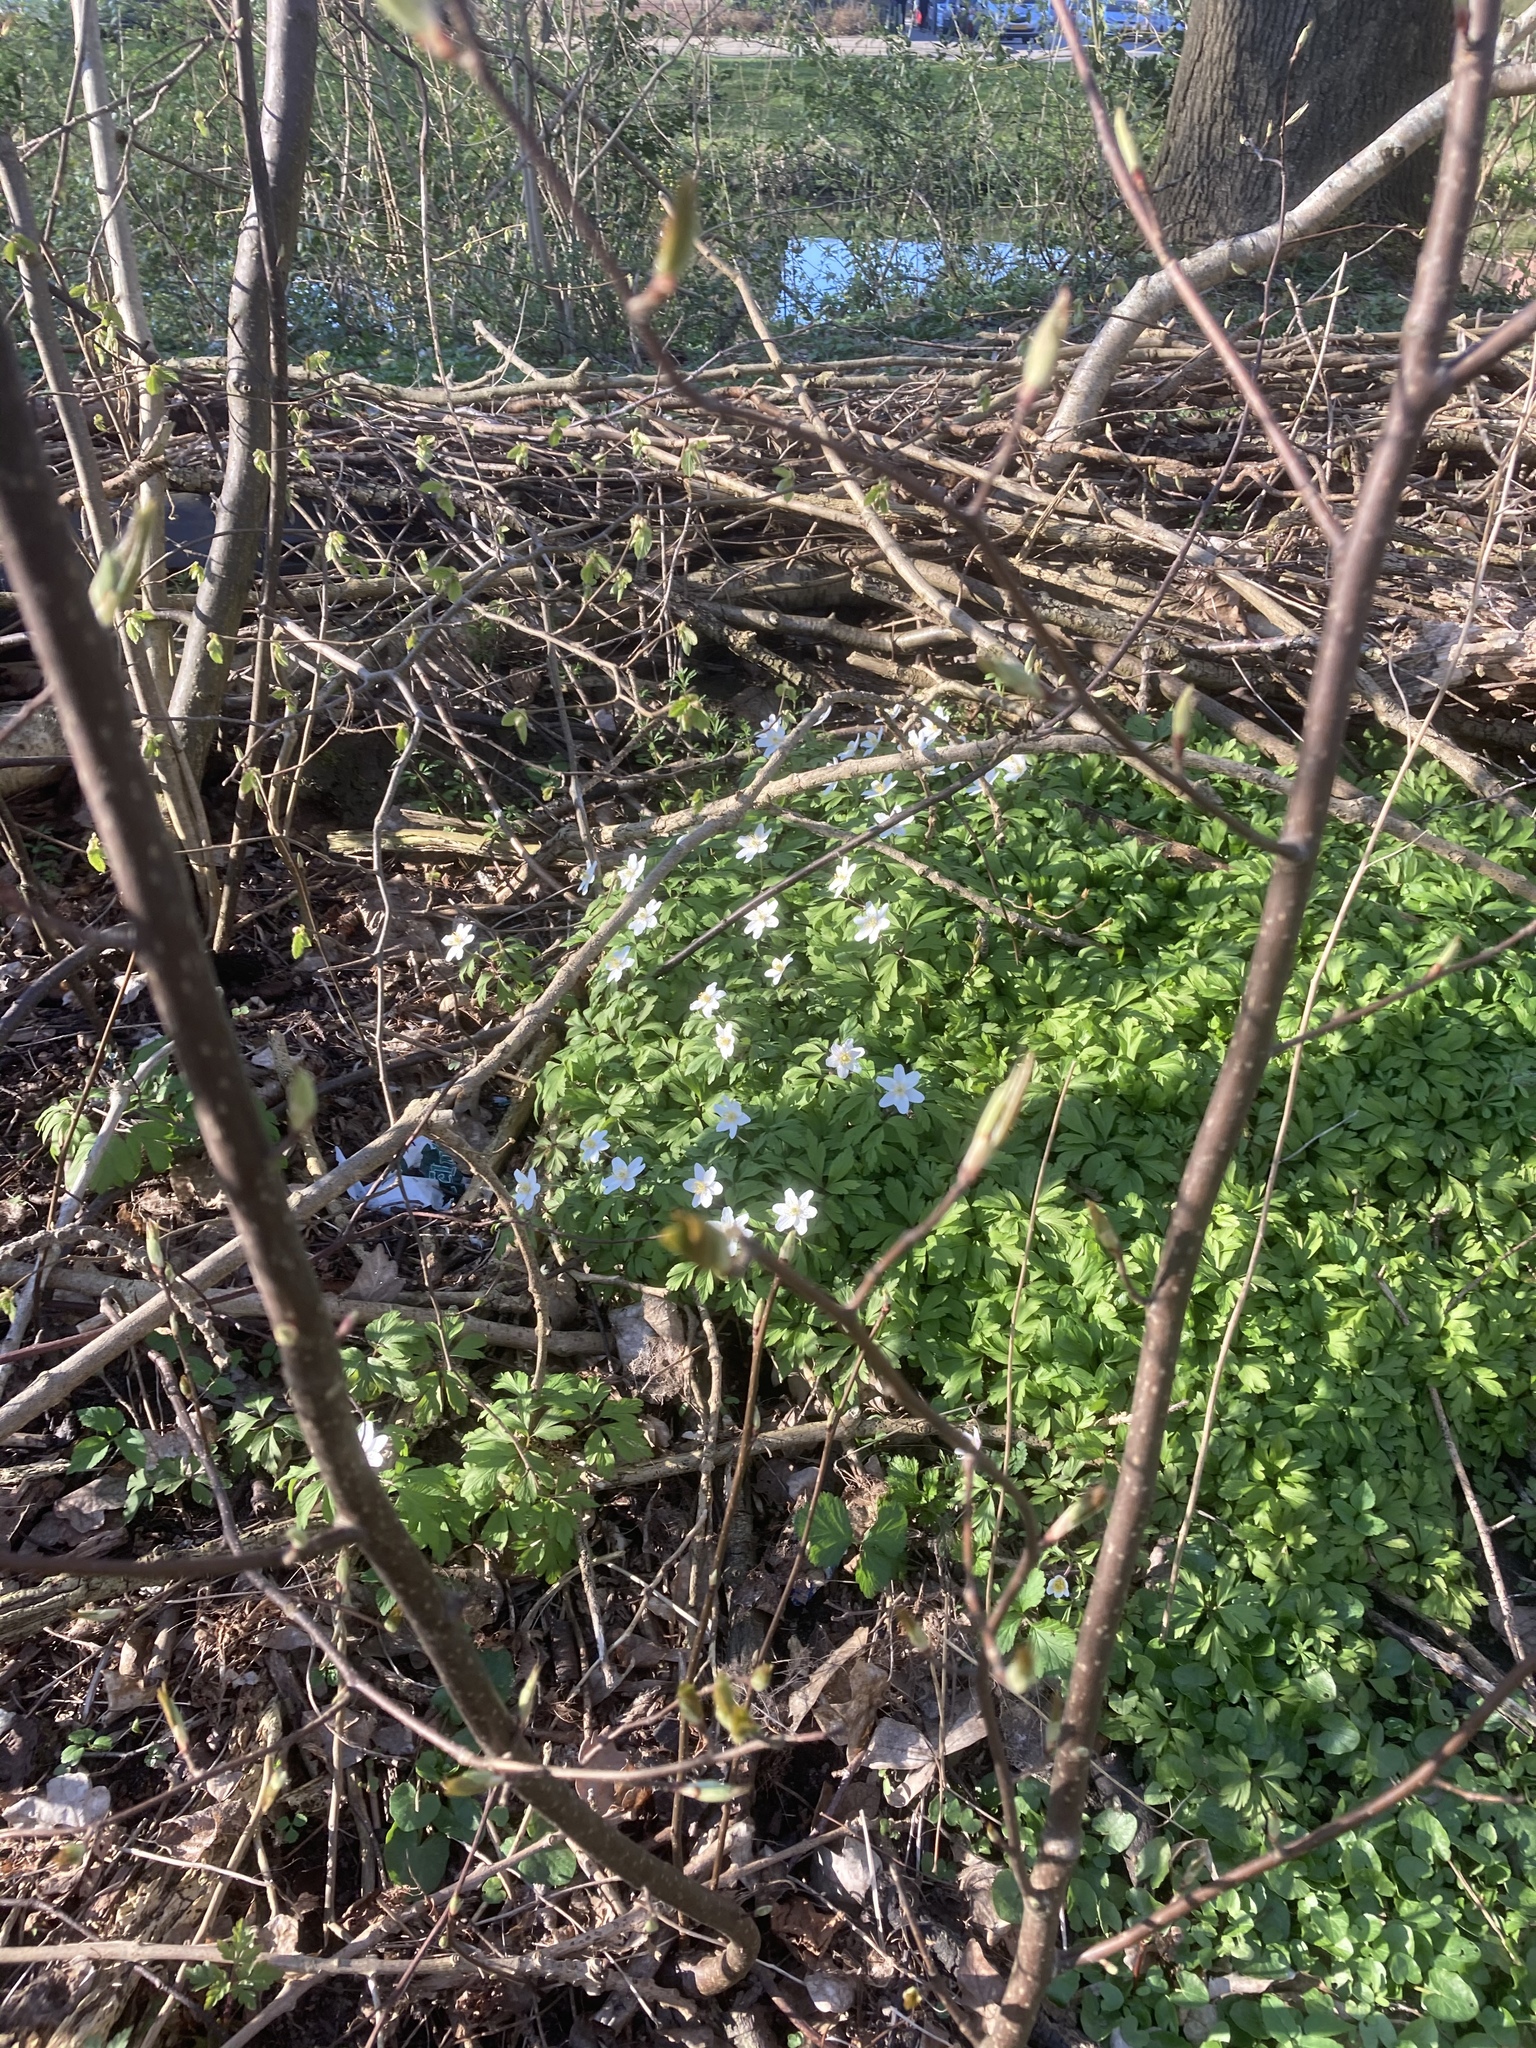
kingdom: Plantae
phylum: Tracheophyta
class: Magnoliopsida
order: Ranunculales
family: Ranunculaceae
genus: Anemone
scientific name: Anemone nemorosa
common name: Wood anemone
